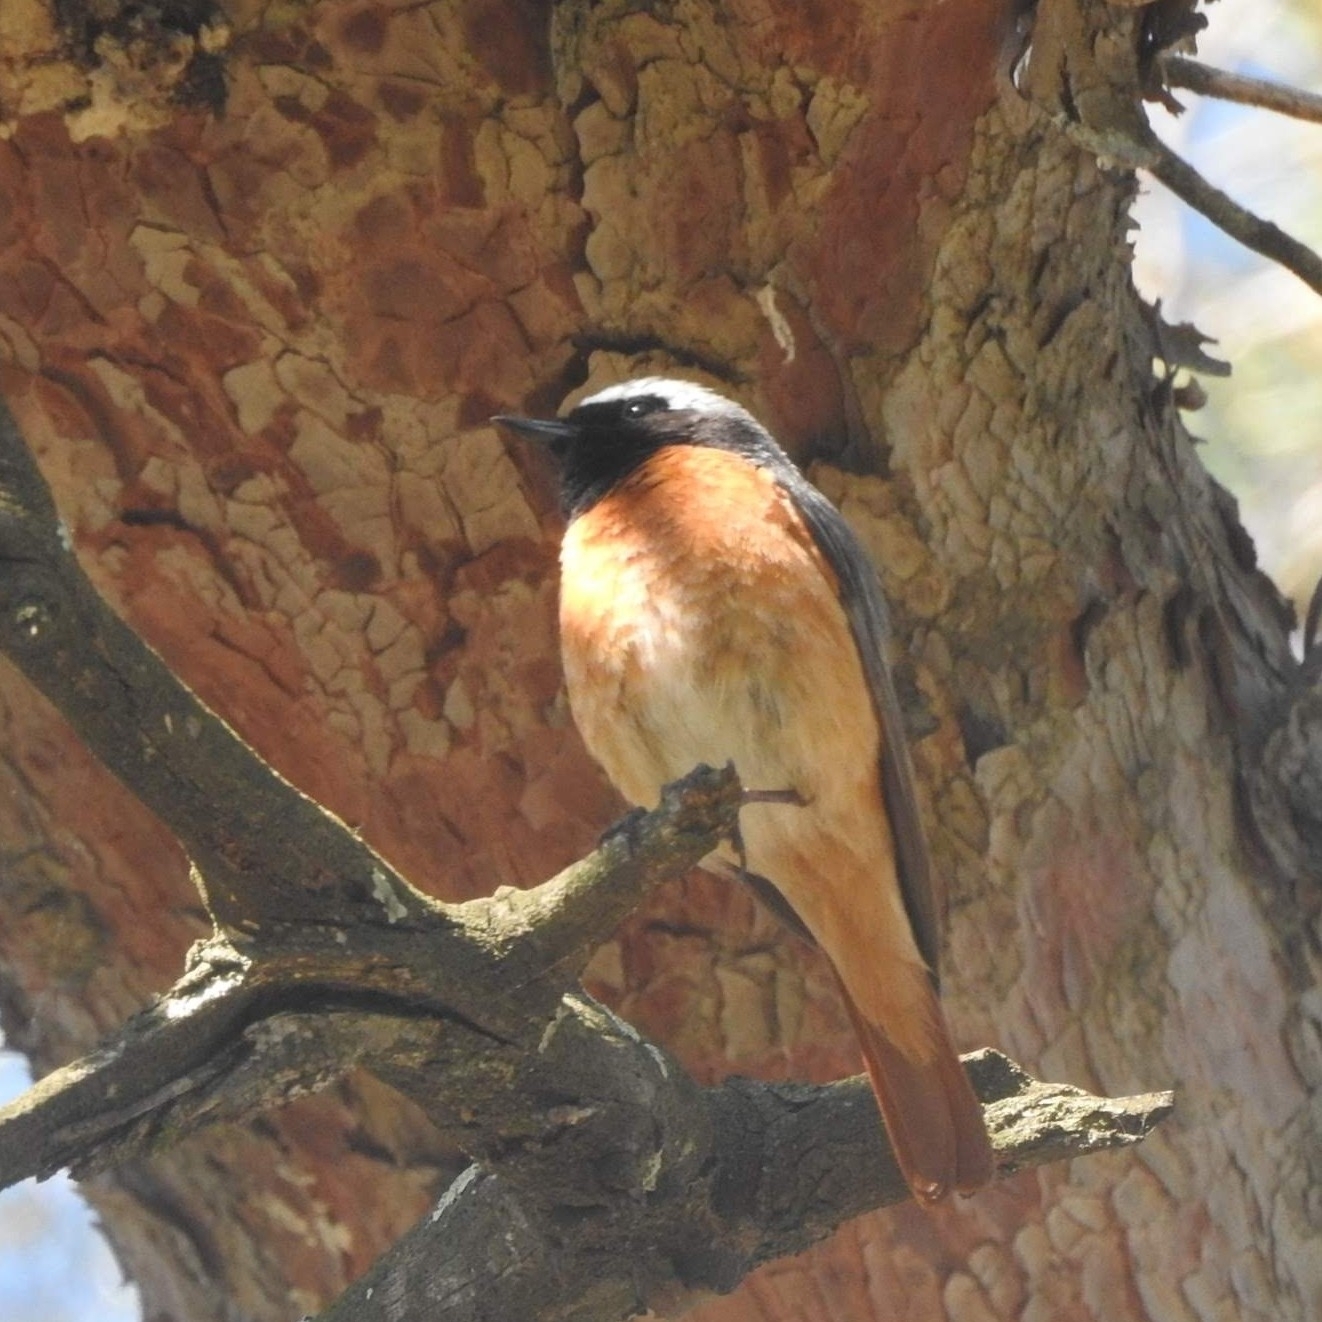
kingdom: Animalia
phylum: Chordata
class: Aves
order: Passeriformes
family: Muscicapidae
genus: Phoenicurus
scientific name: Phoenicurus phoenicurus
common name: Common redstart
